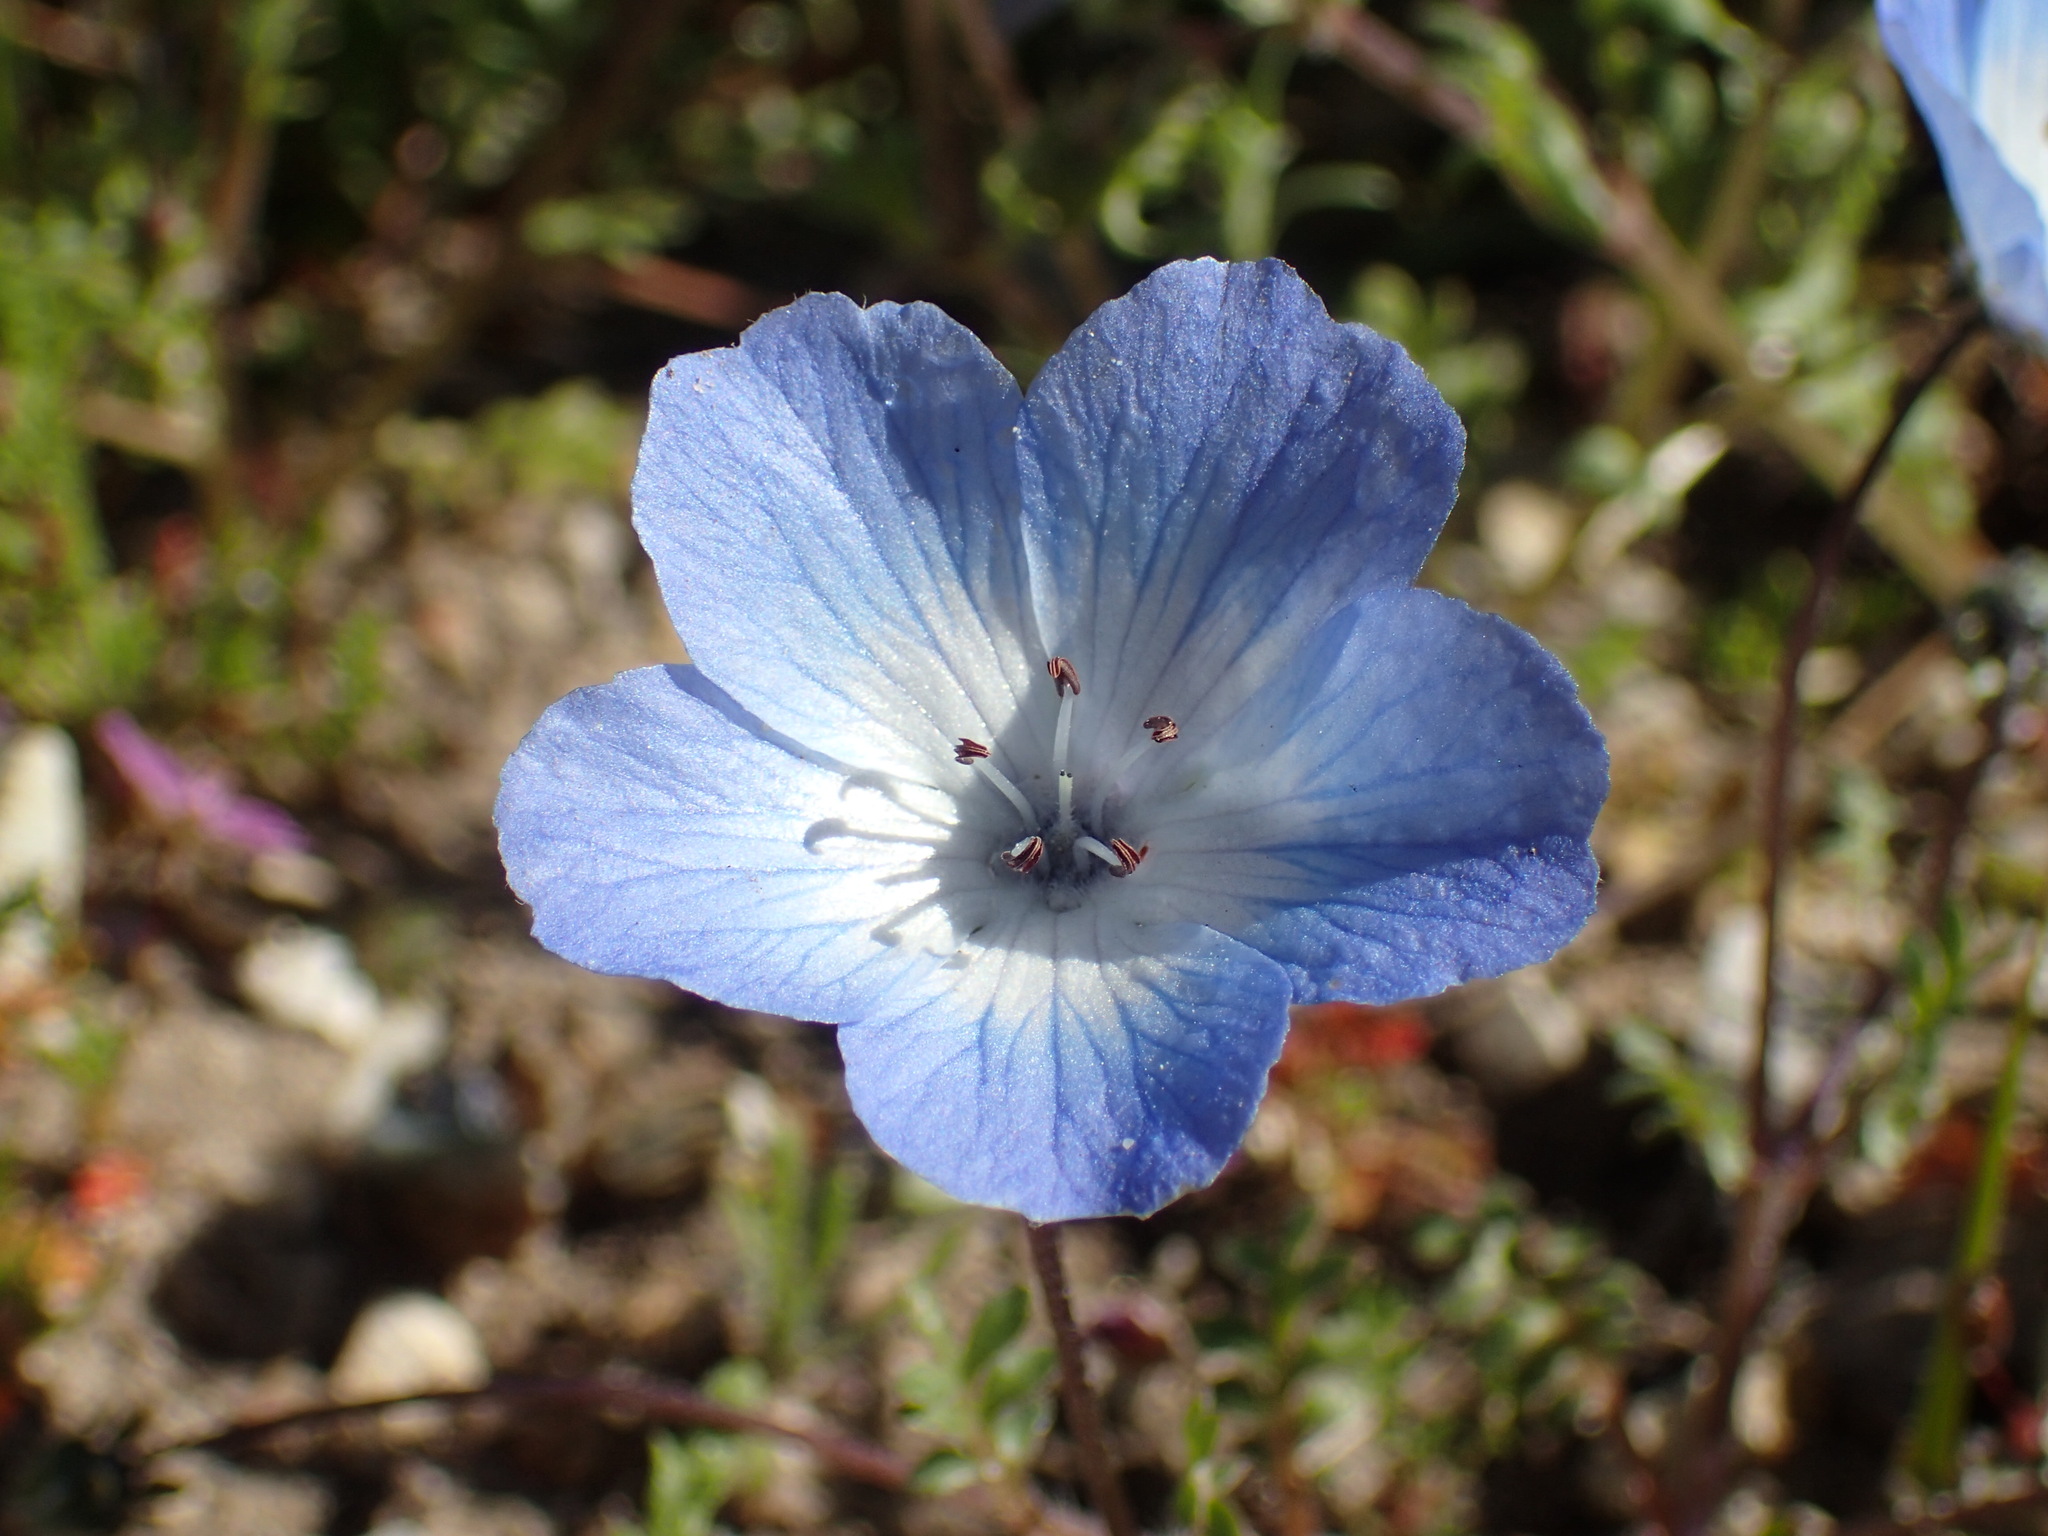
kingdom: Plantae
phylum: Tracheophyta
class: Magnoliopsida
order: Boraginales
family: Hydrophyllaceae
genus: Nemophila
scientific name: Nemophila menziesii
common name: Baby's-blue-eyes
